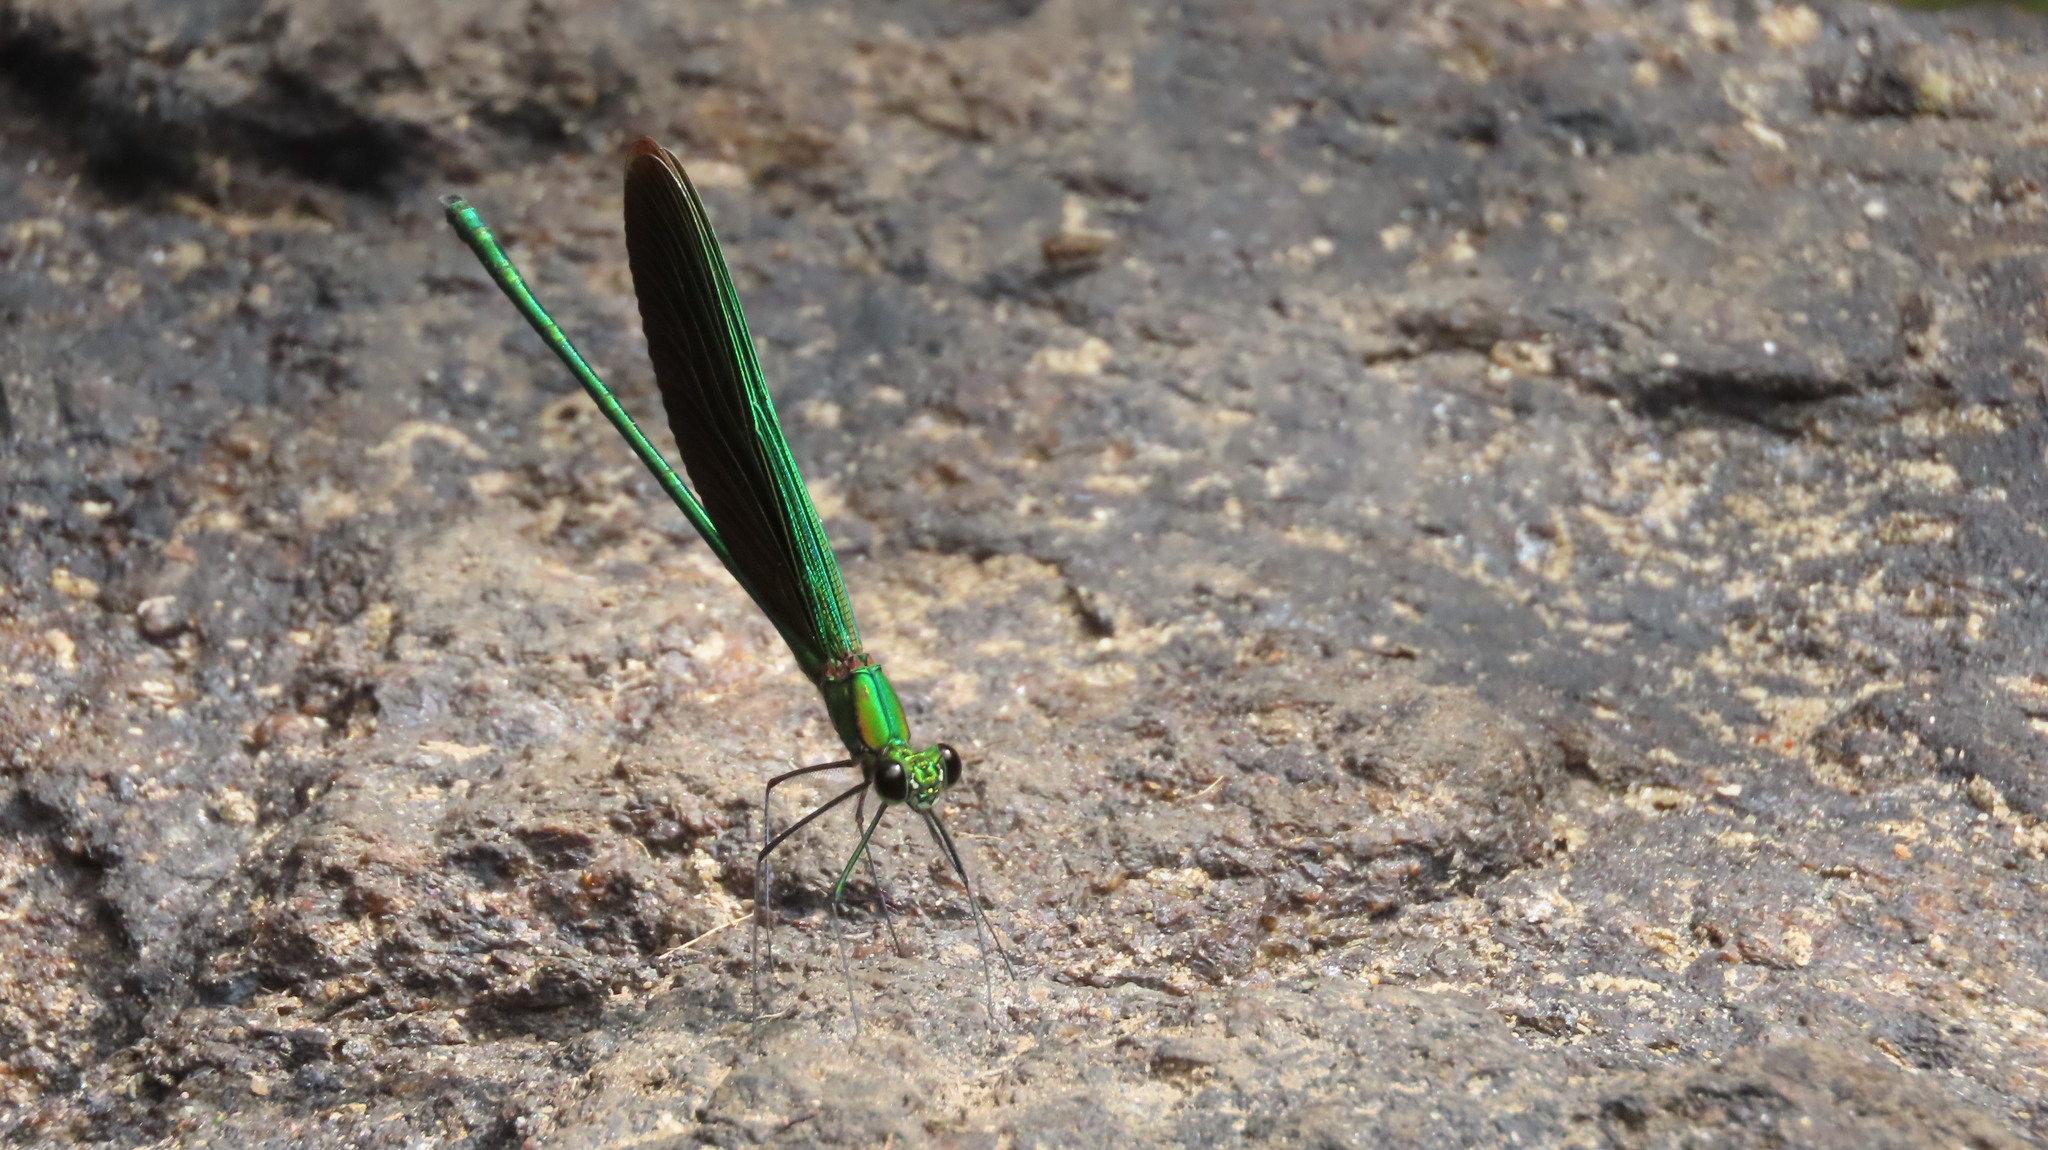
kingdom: Animalia
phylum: Arthropoda
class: Insecta
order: Odonata
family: Calopterygidae
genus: Neurobasis
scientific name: Neurobasis chinensis
